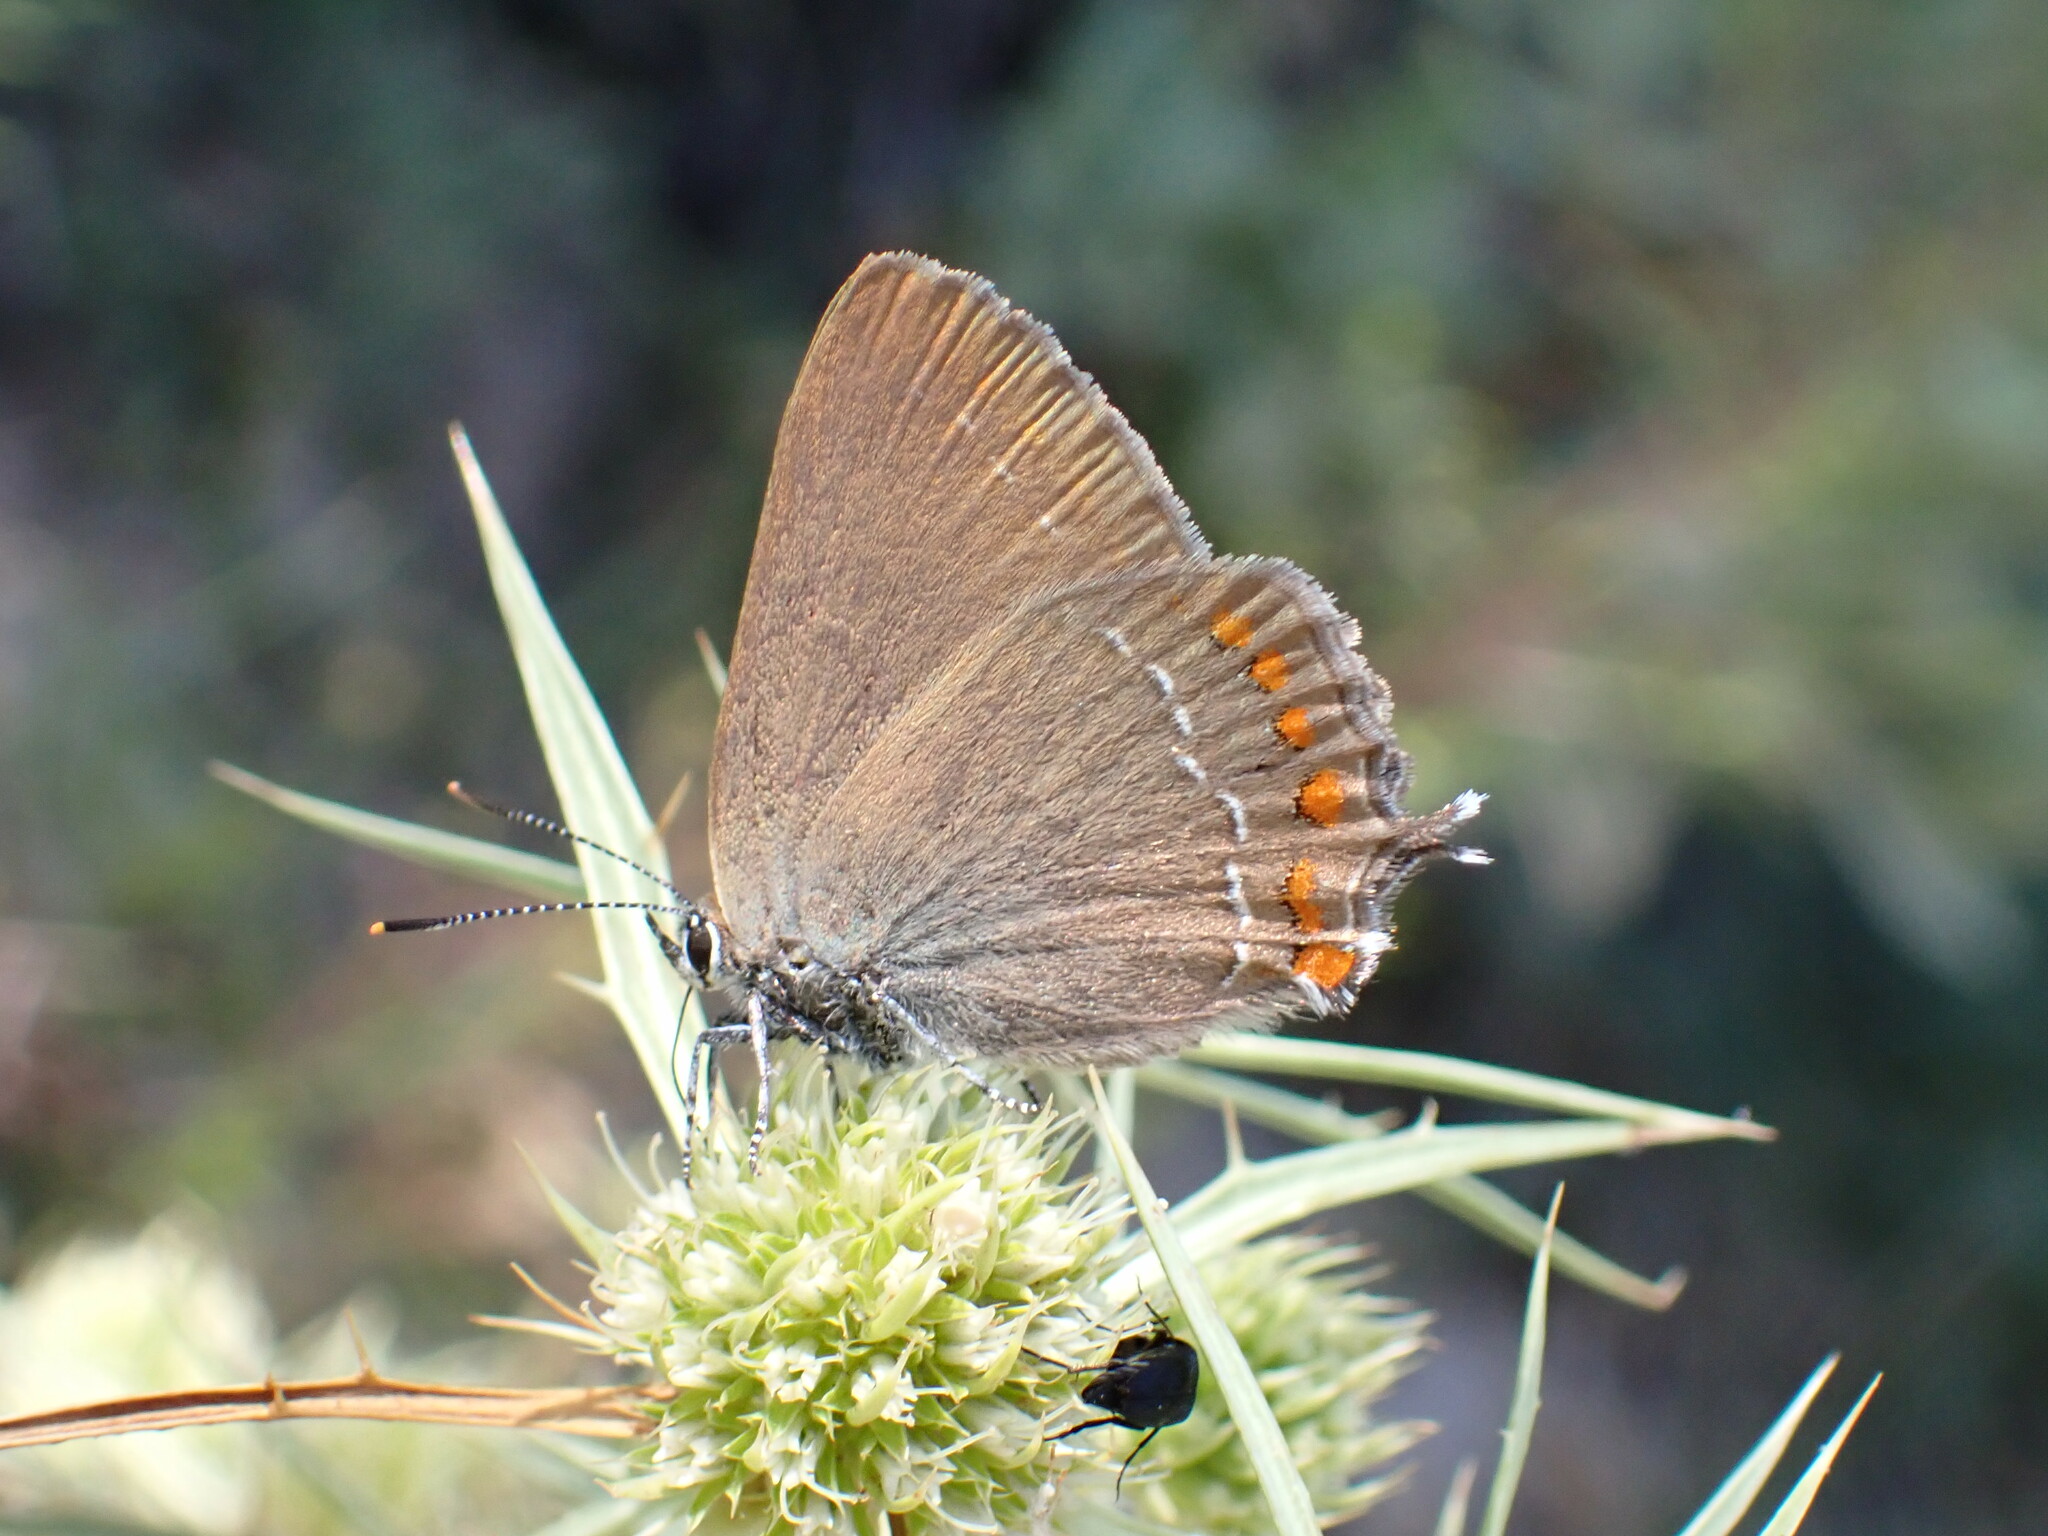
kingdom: Animalia
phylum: Arthropoda
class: Insecta
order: Lepidoptera
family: Lycaenidae
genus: Fixsenia
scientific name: Fixsenia esculi
